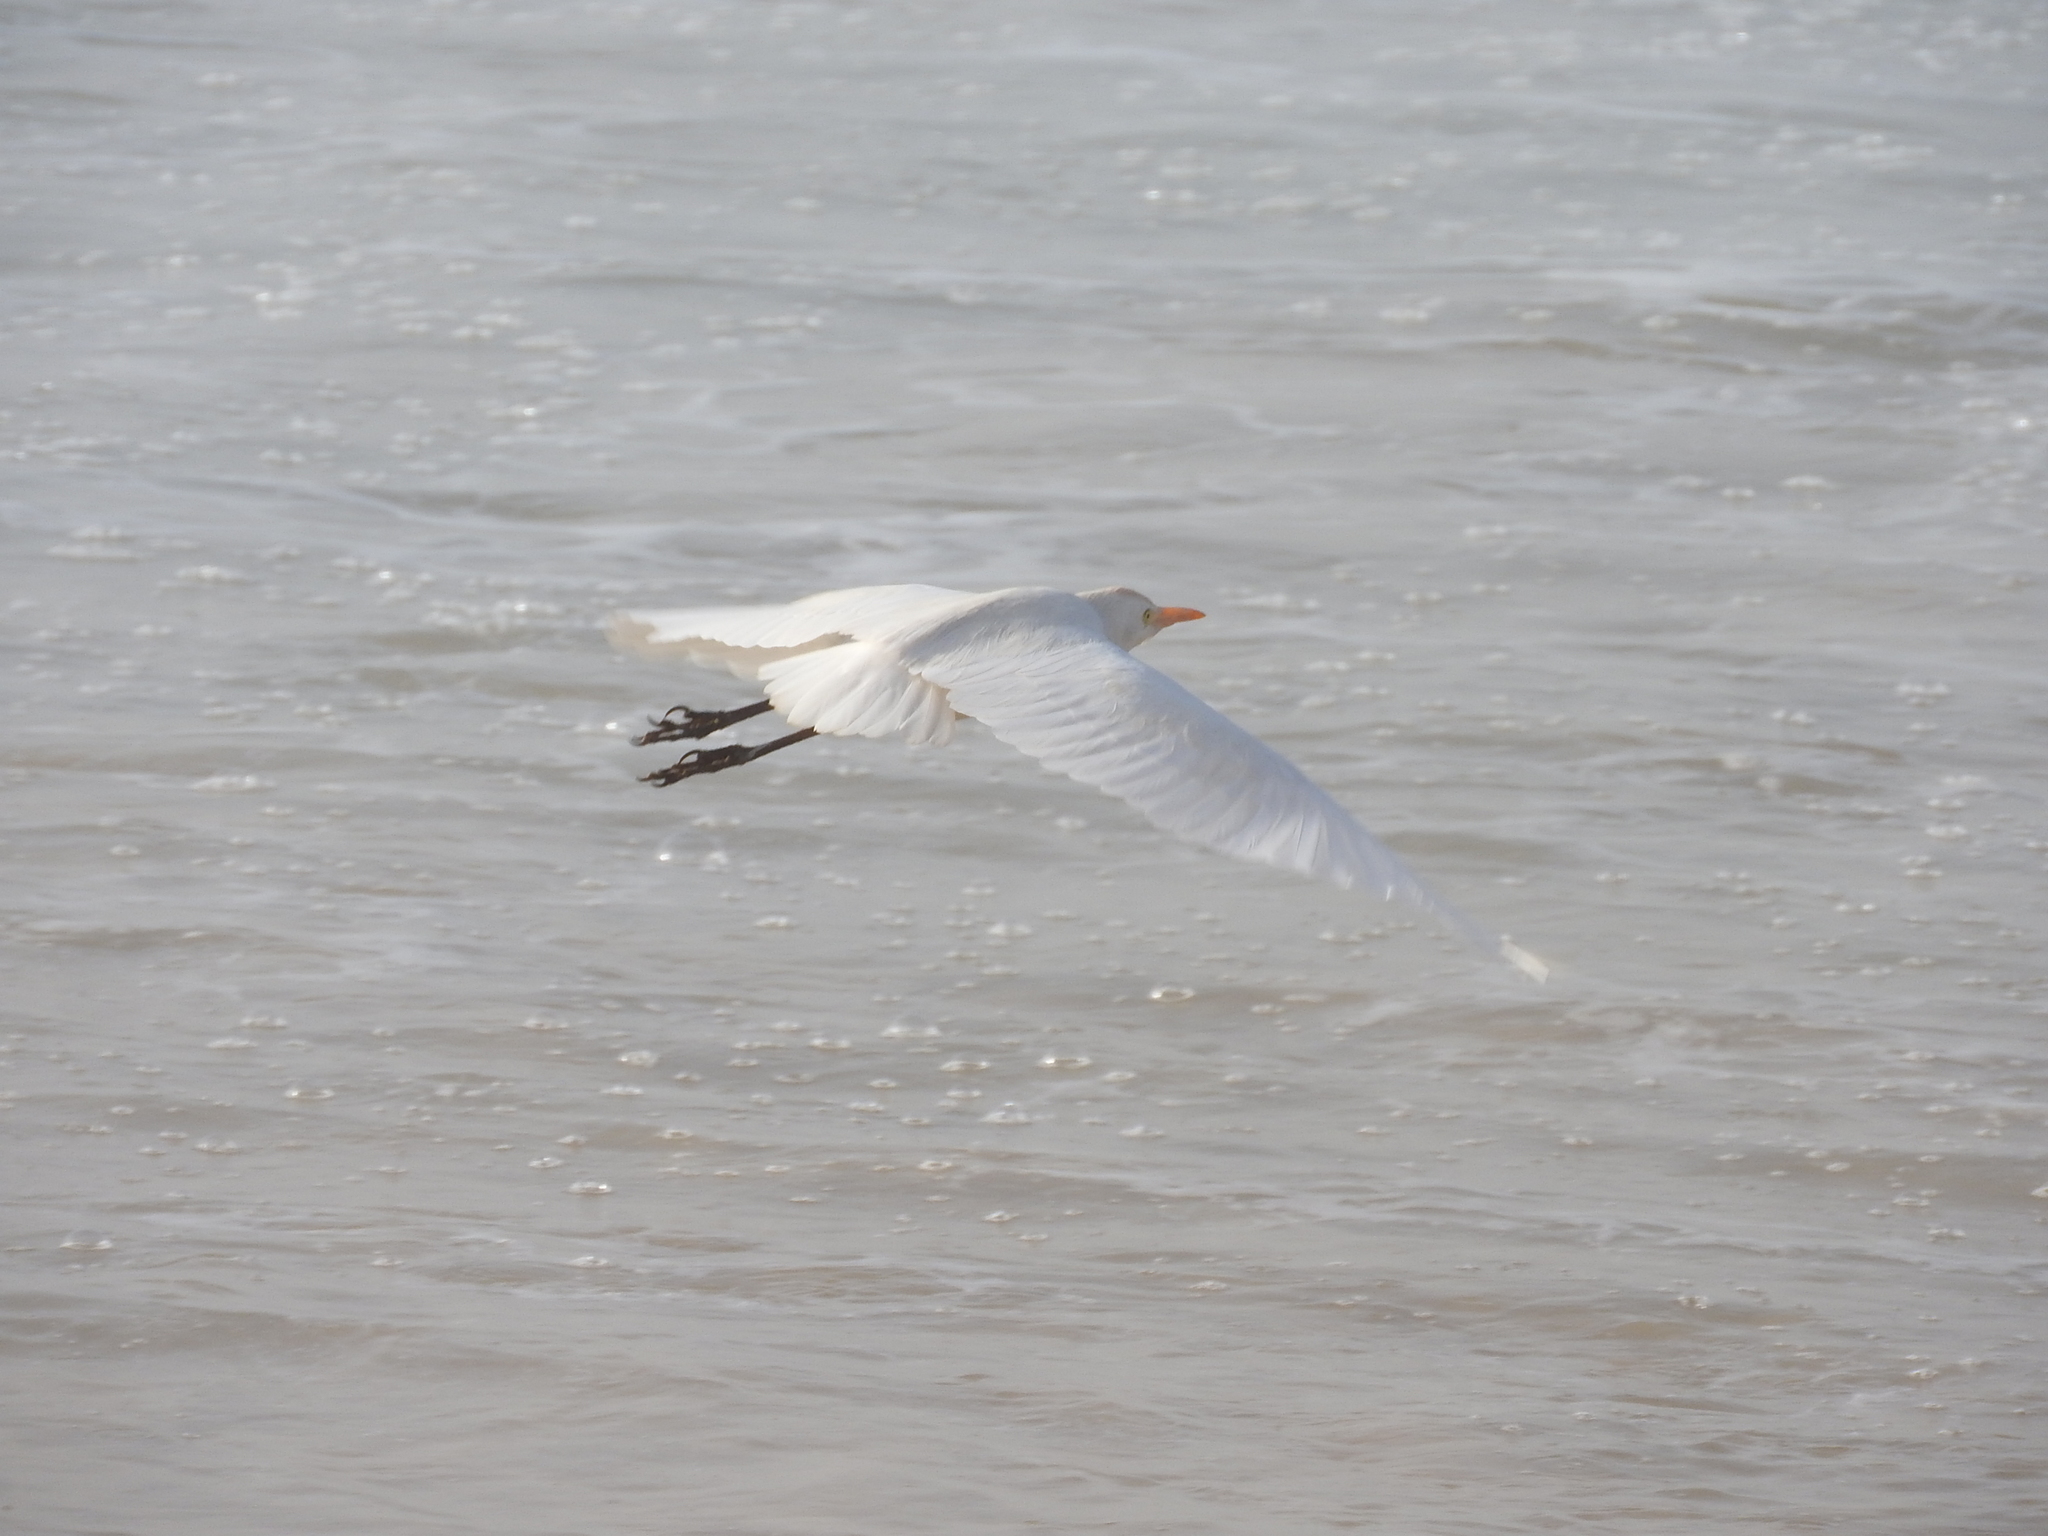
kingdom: Animalia
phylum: Chordata
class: Aves
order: Pelecaniformes
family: Ardeidae
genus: Bubulcus
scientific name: Bubulcus ibis
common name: Cattle egret
